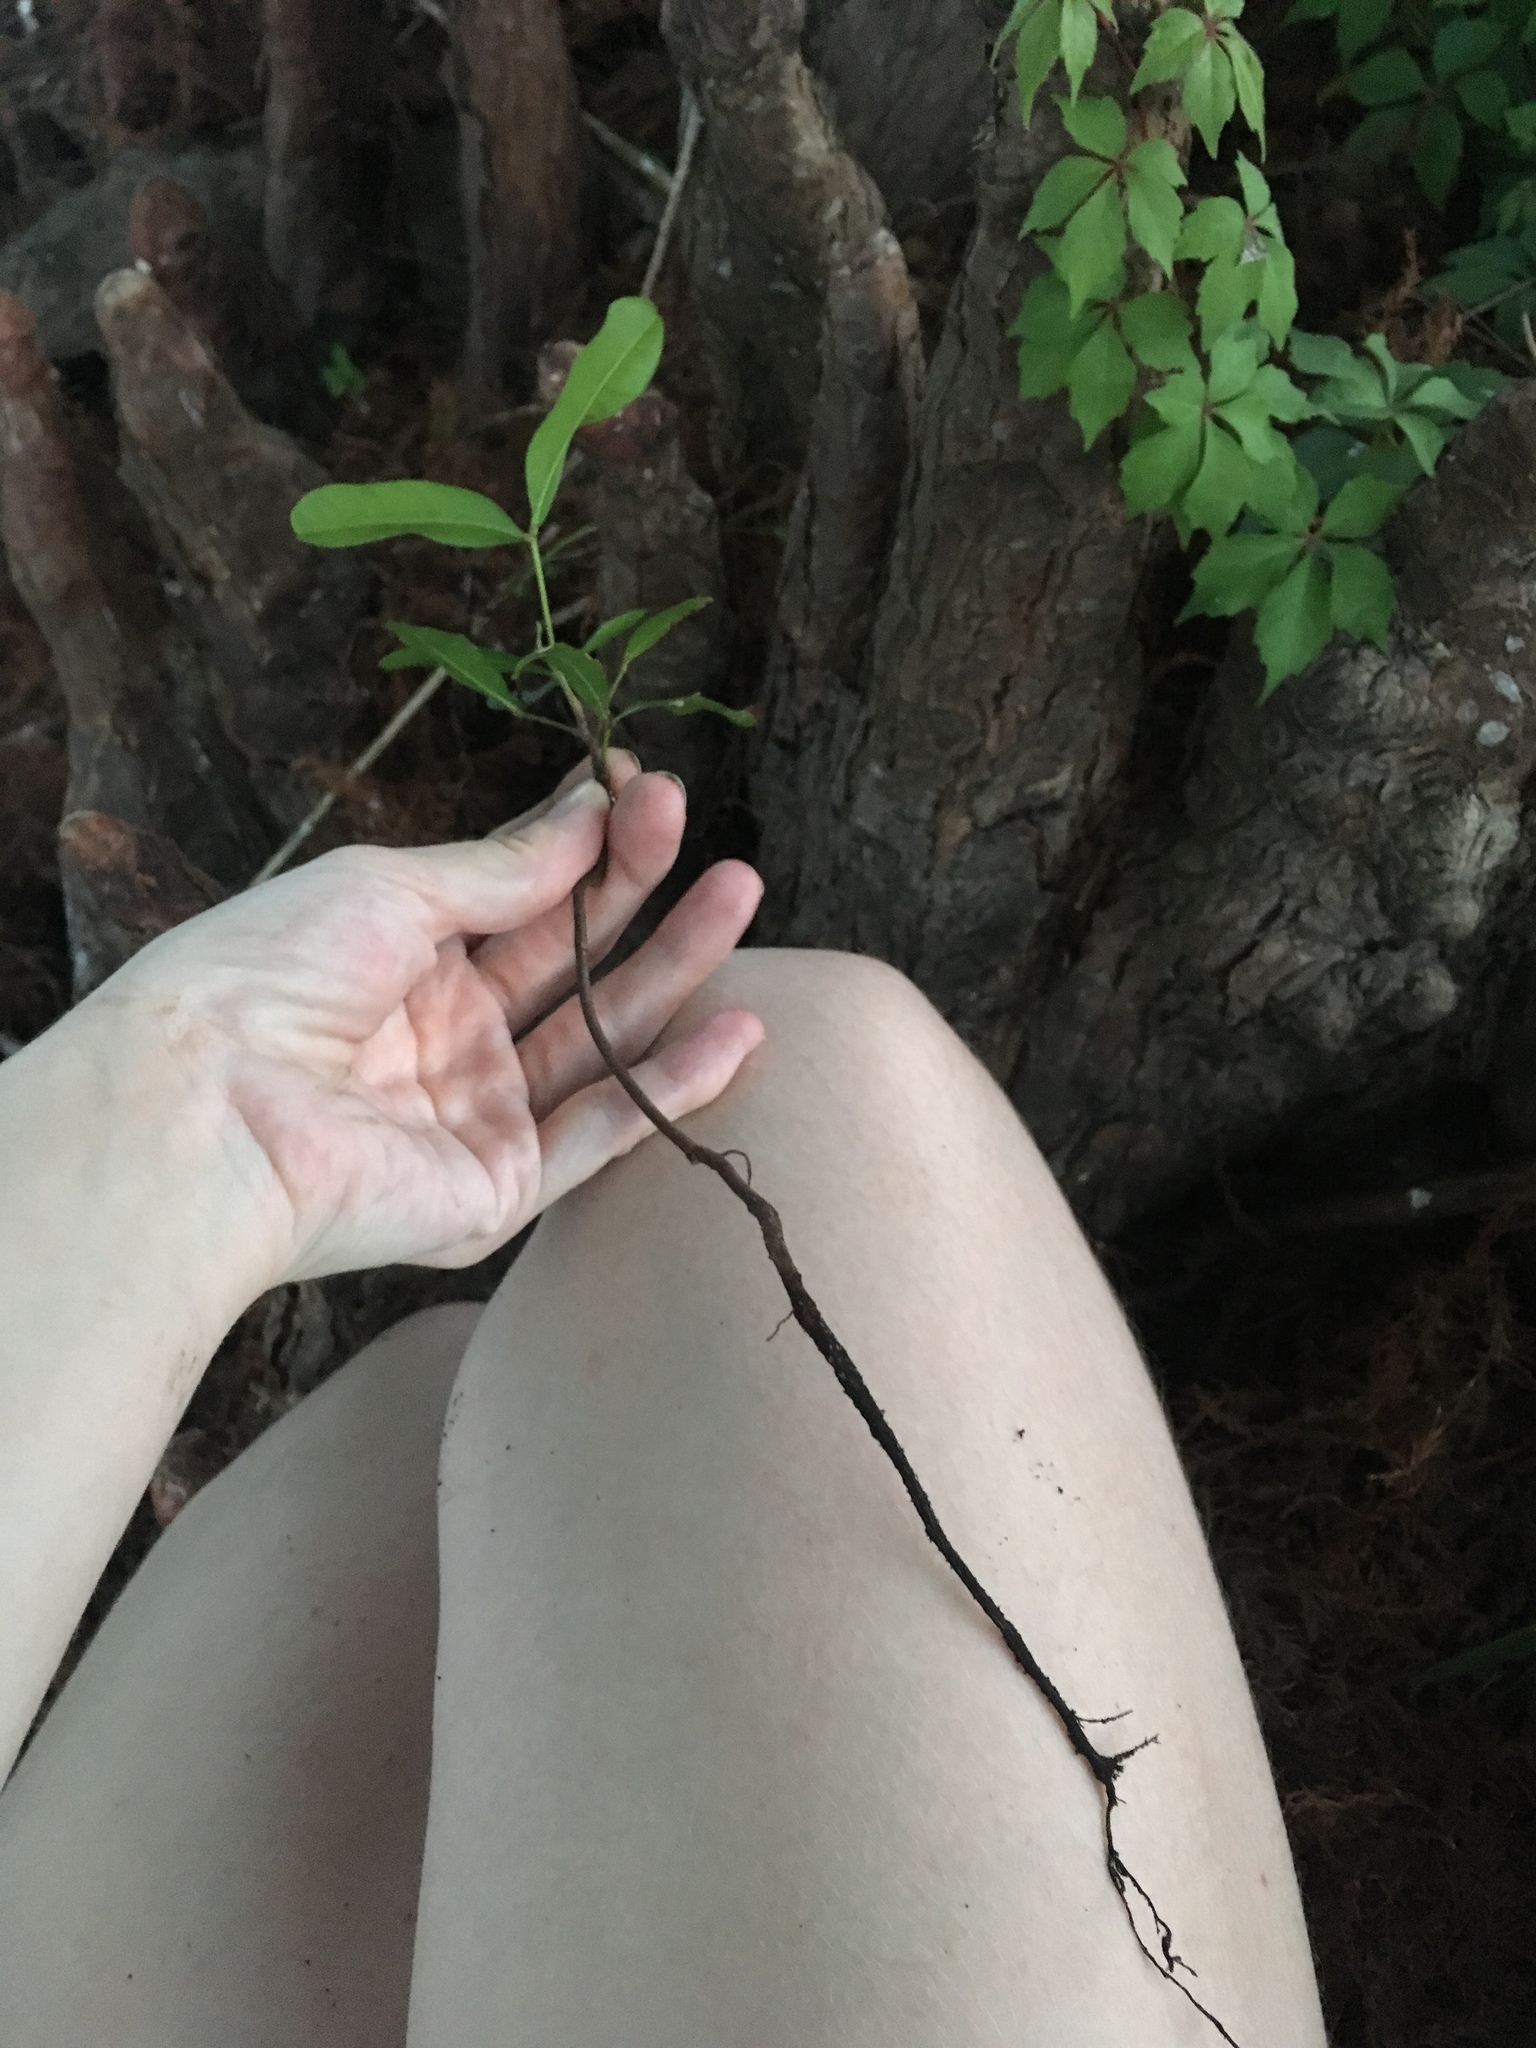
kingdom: Plantae
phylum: Tracheophyta
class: Magnoliopsida
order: Sapindales
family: Sapindaceae
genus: Cupaniopsis
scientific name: Cupaniopsis anacardioides
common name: Carrotwood
